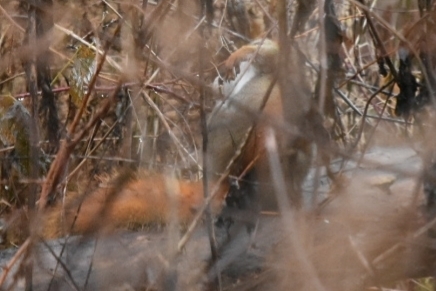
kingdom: Animalia
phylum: Chordata
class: Mammalia
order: Rodentia
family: Sciuridae
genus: Tamiasciurus
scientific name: Tamiasciurus hudsonicus
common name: Red squirrel
